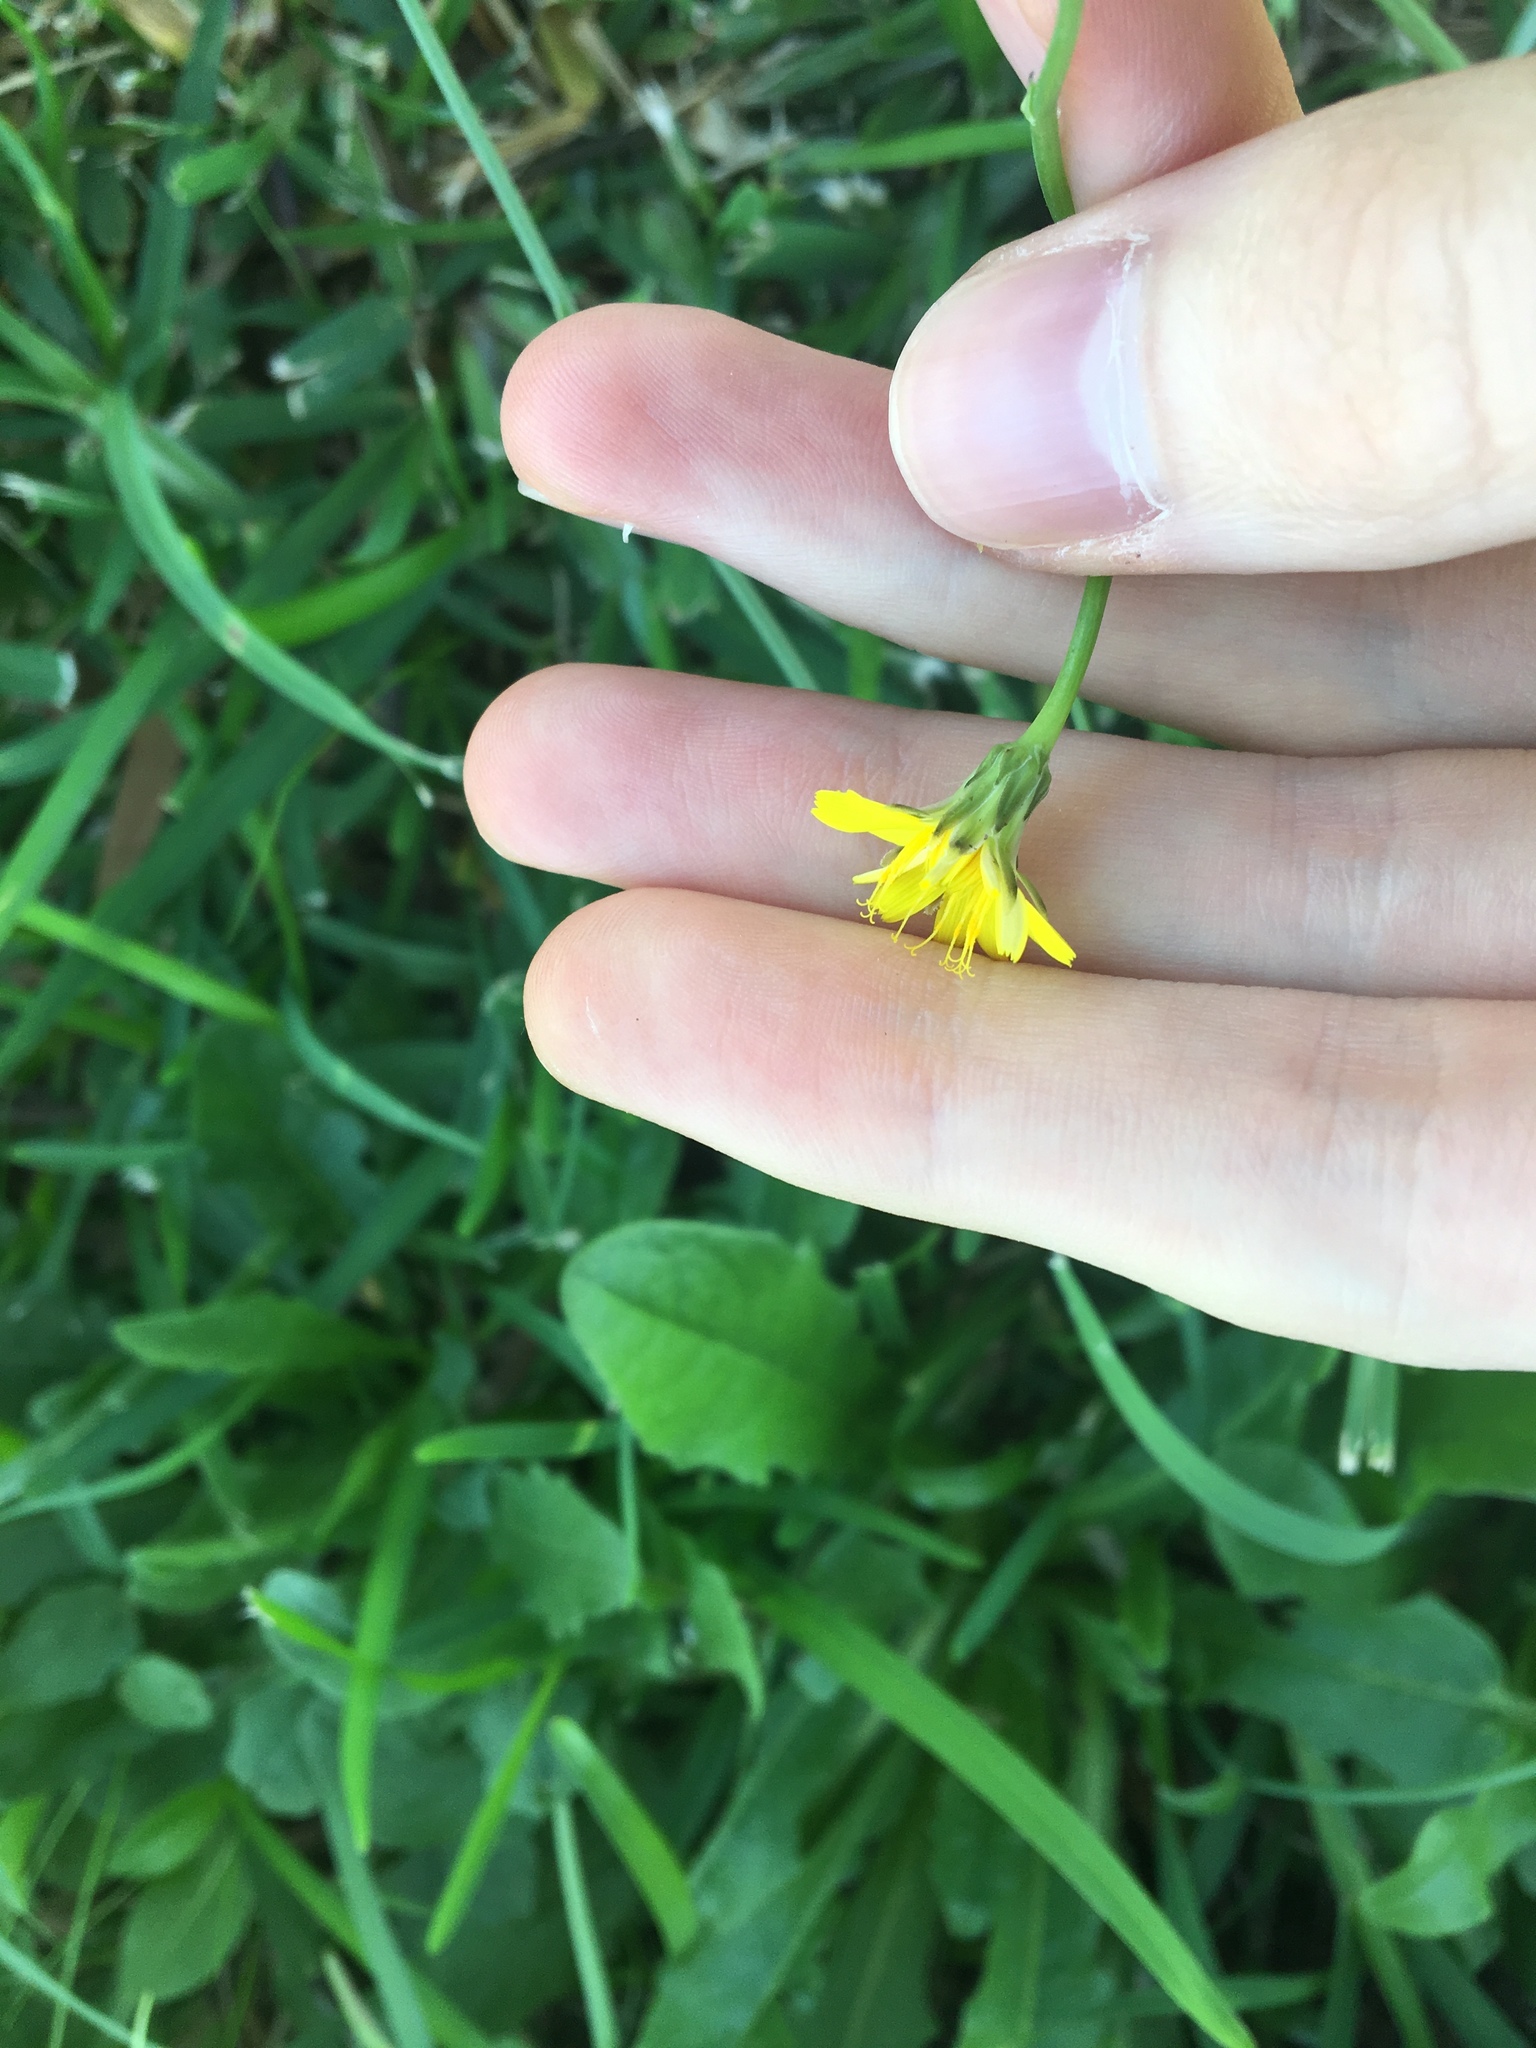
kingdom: Plantae
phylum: Tracheophyta
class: Magnoliopsida
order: Asterales
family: Asteraceae
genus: Hypochaeris
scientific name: Hypochaeris radicata
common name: Flatweed
